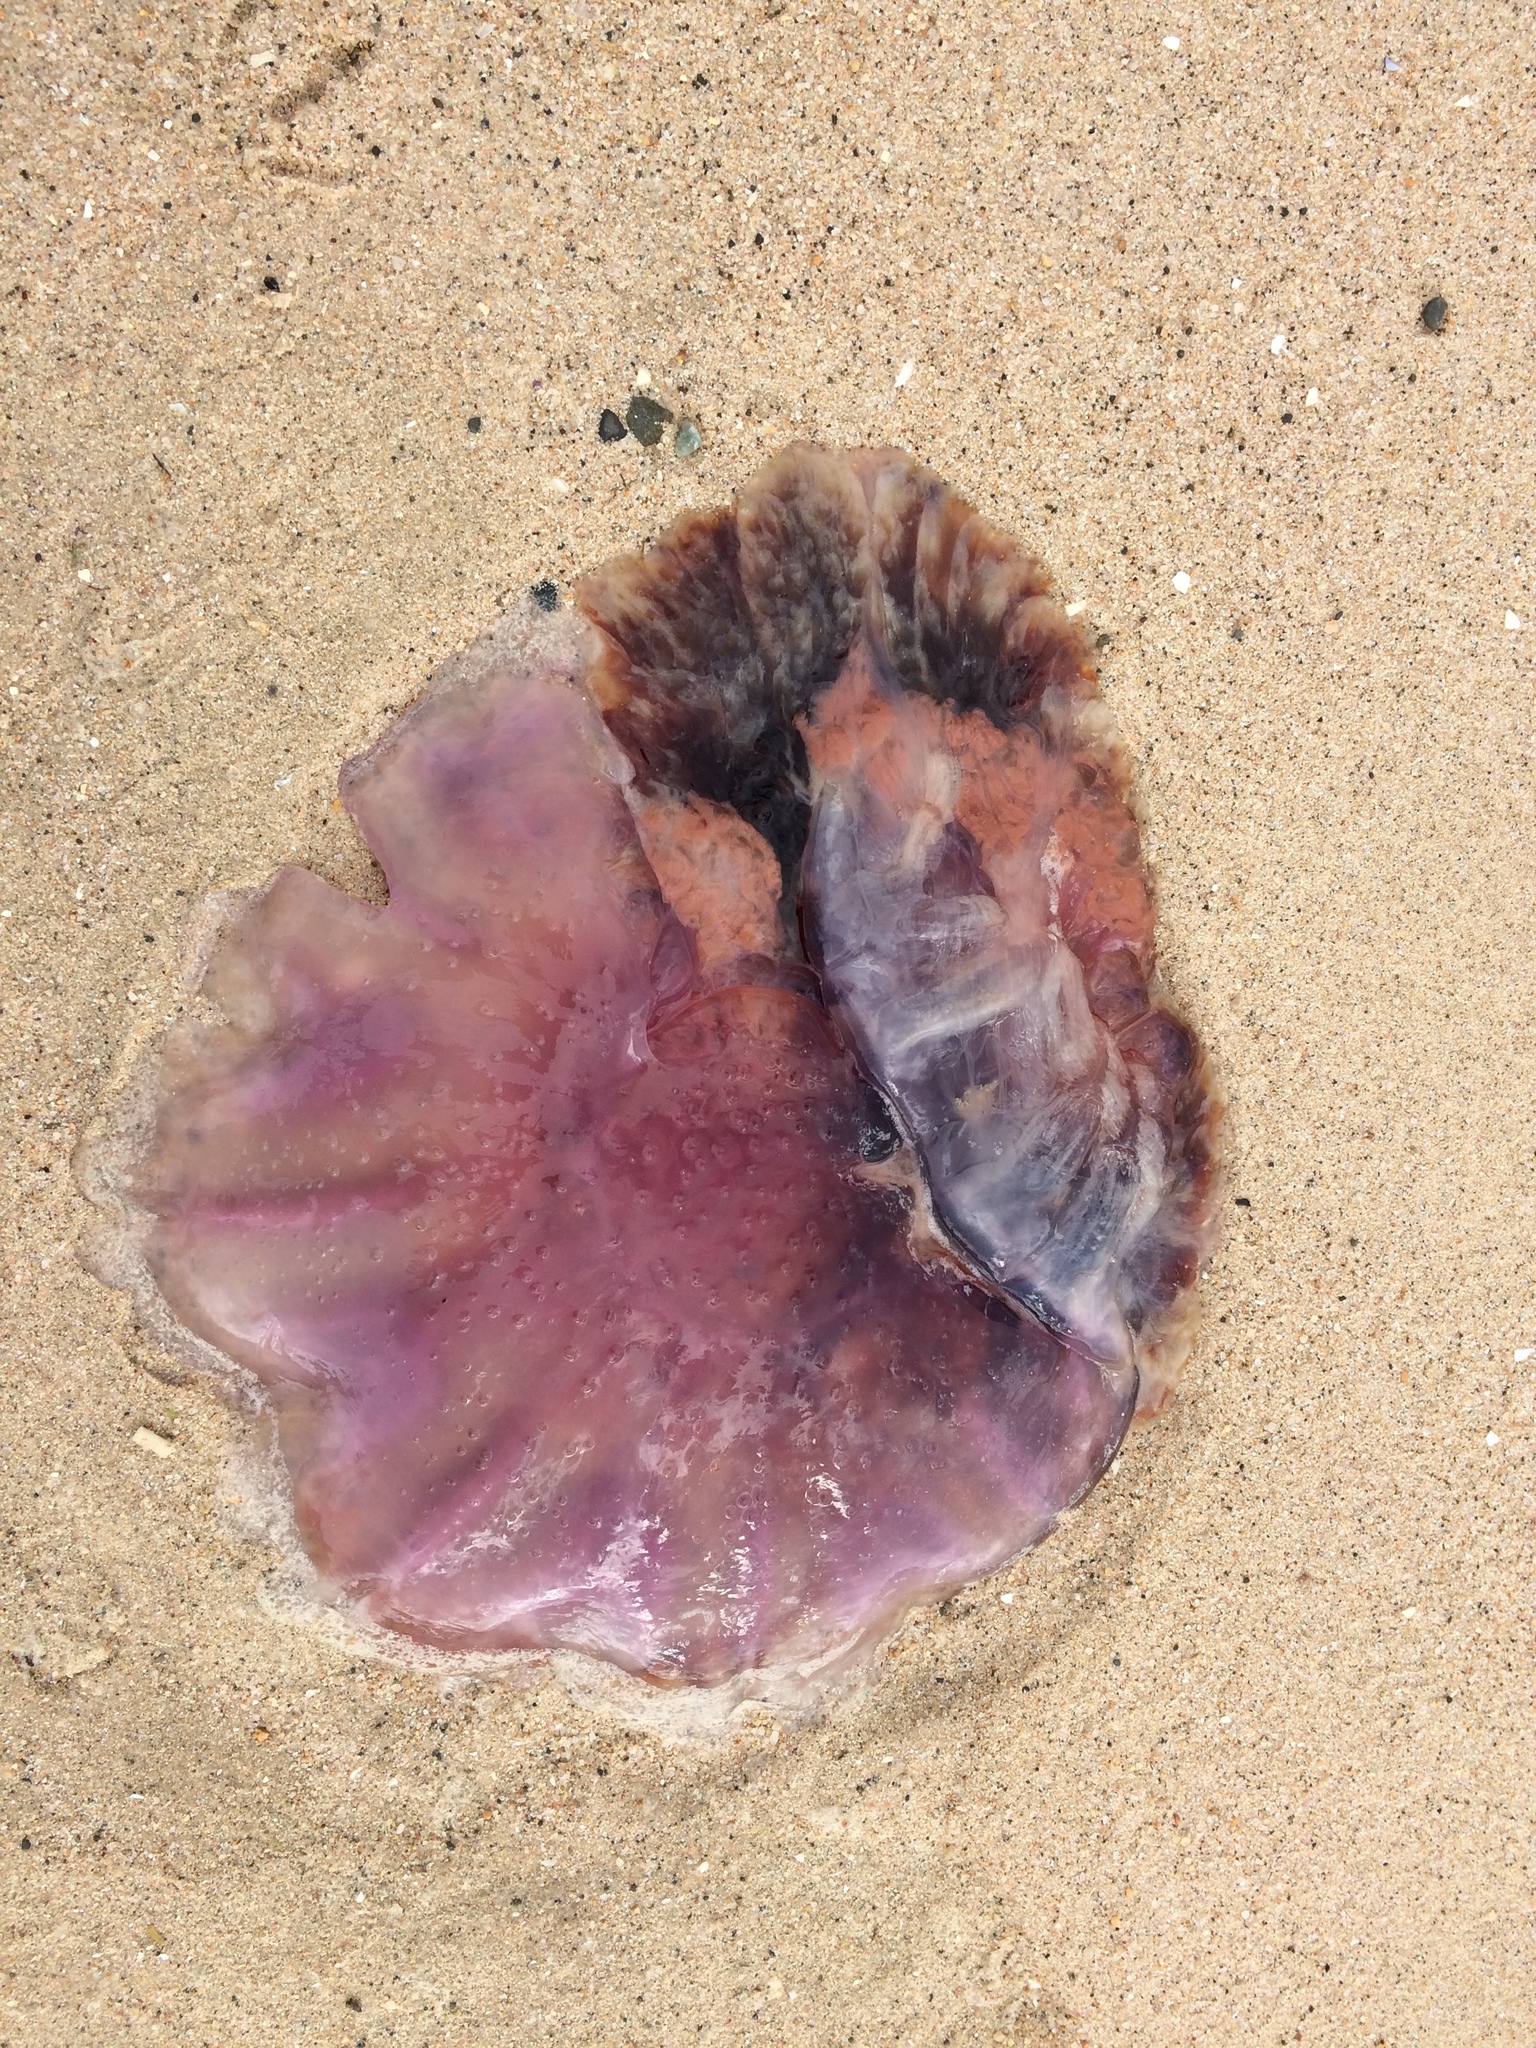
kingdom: Animalia
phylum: Cnidaria
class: Scyphozoa
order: Semaeostomeae
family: Cyaneidae
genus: Cyanea
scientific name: Cyanea
